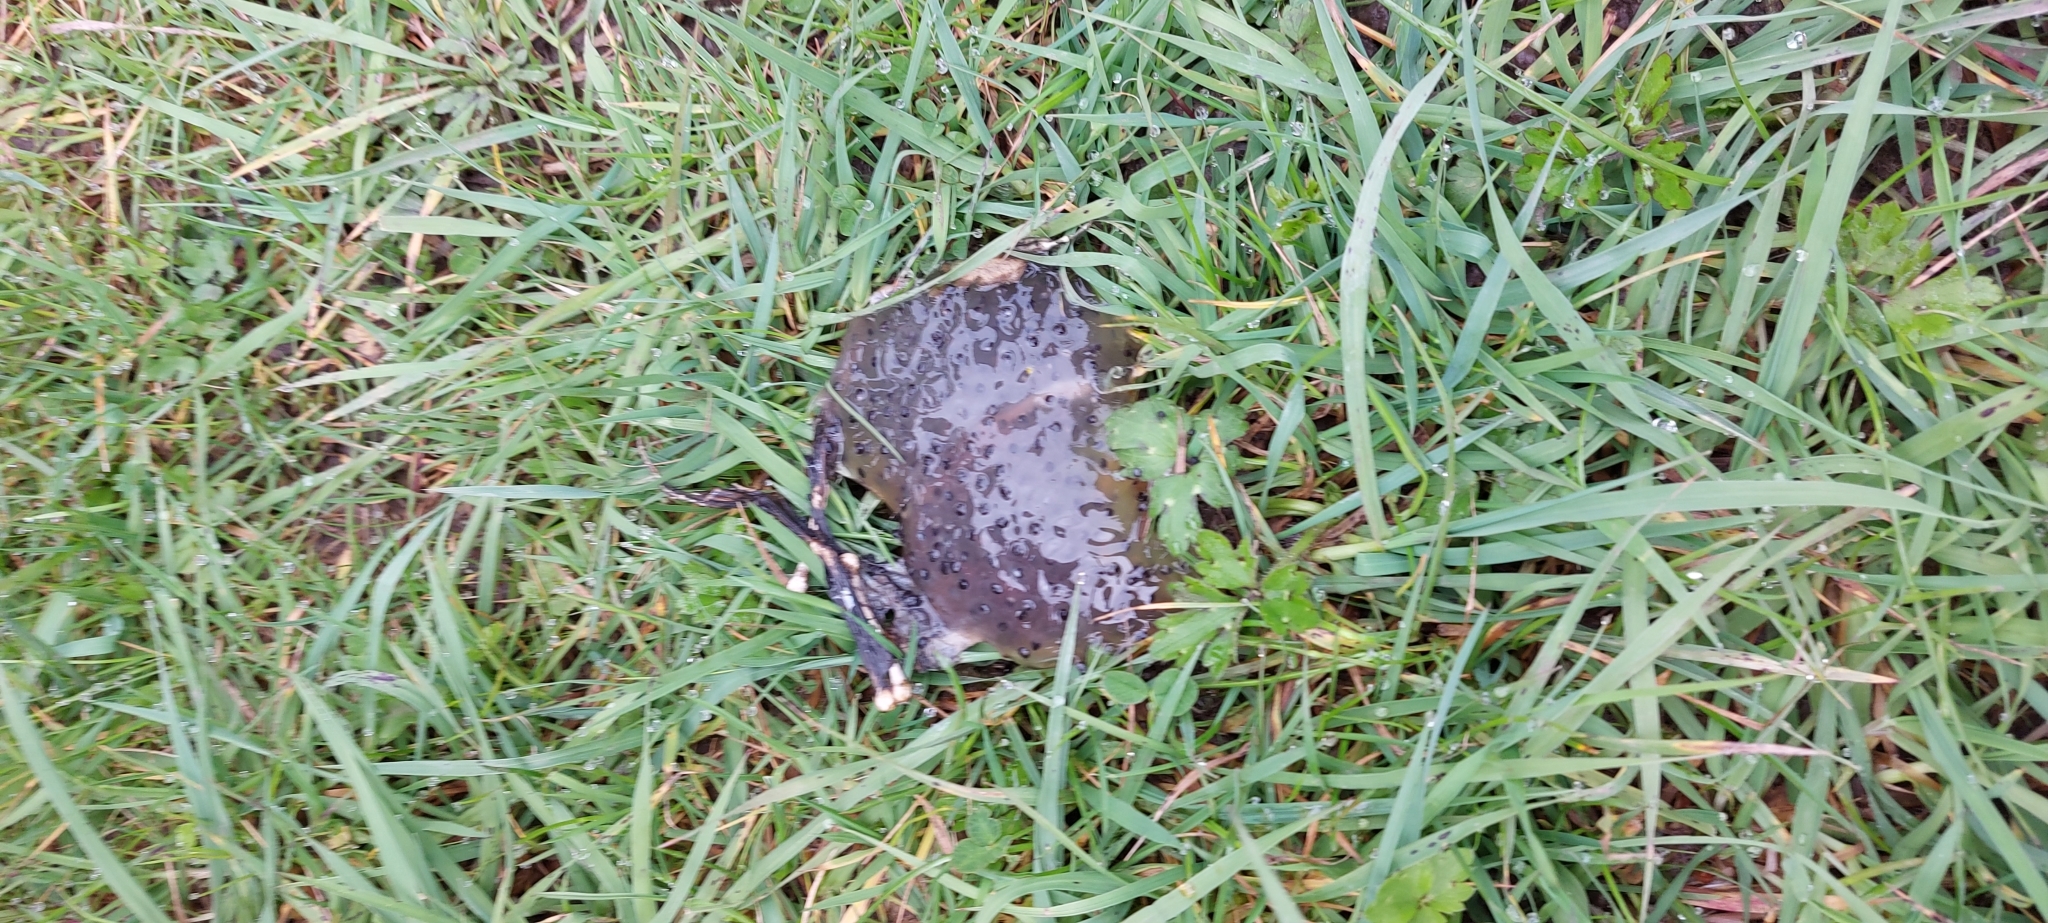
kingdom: Animalia
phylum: Chordata
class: Amphibia
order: Anura
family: Ranidae
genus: Rana
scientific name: Rana temporaria
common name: Common frog
